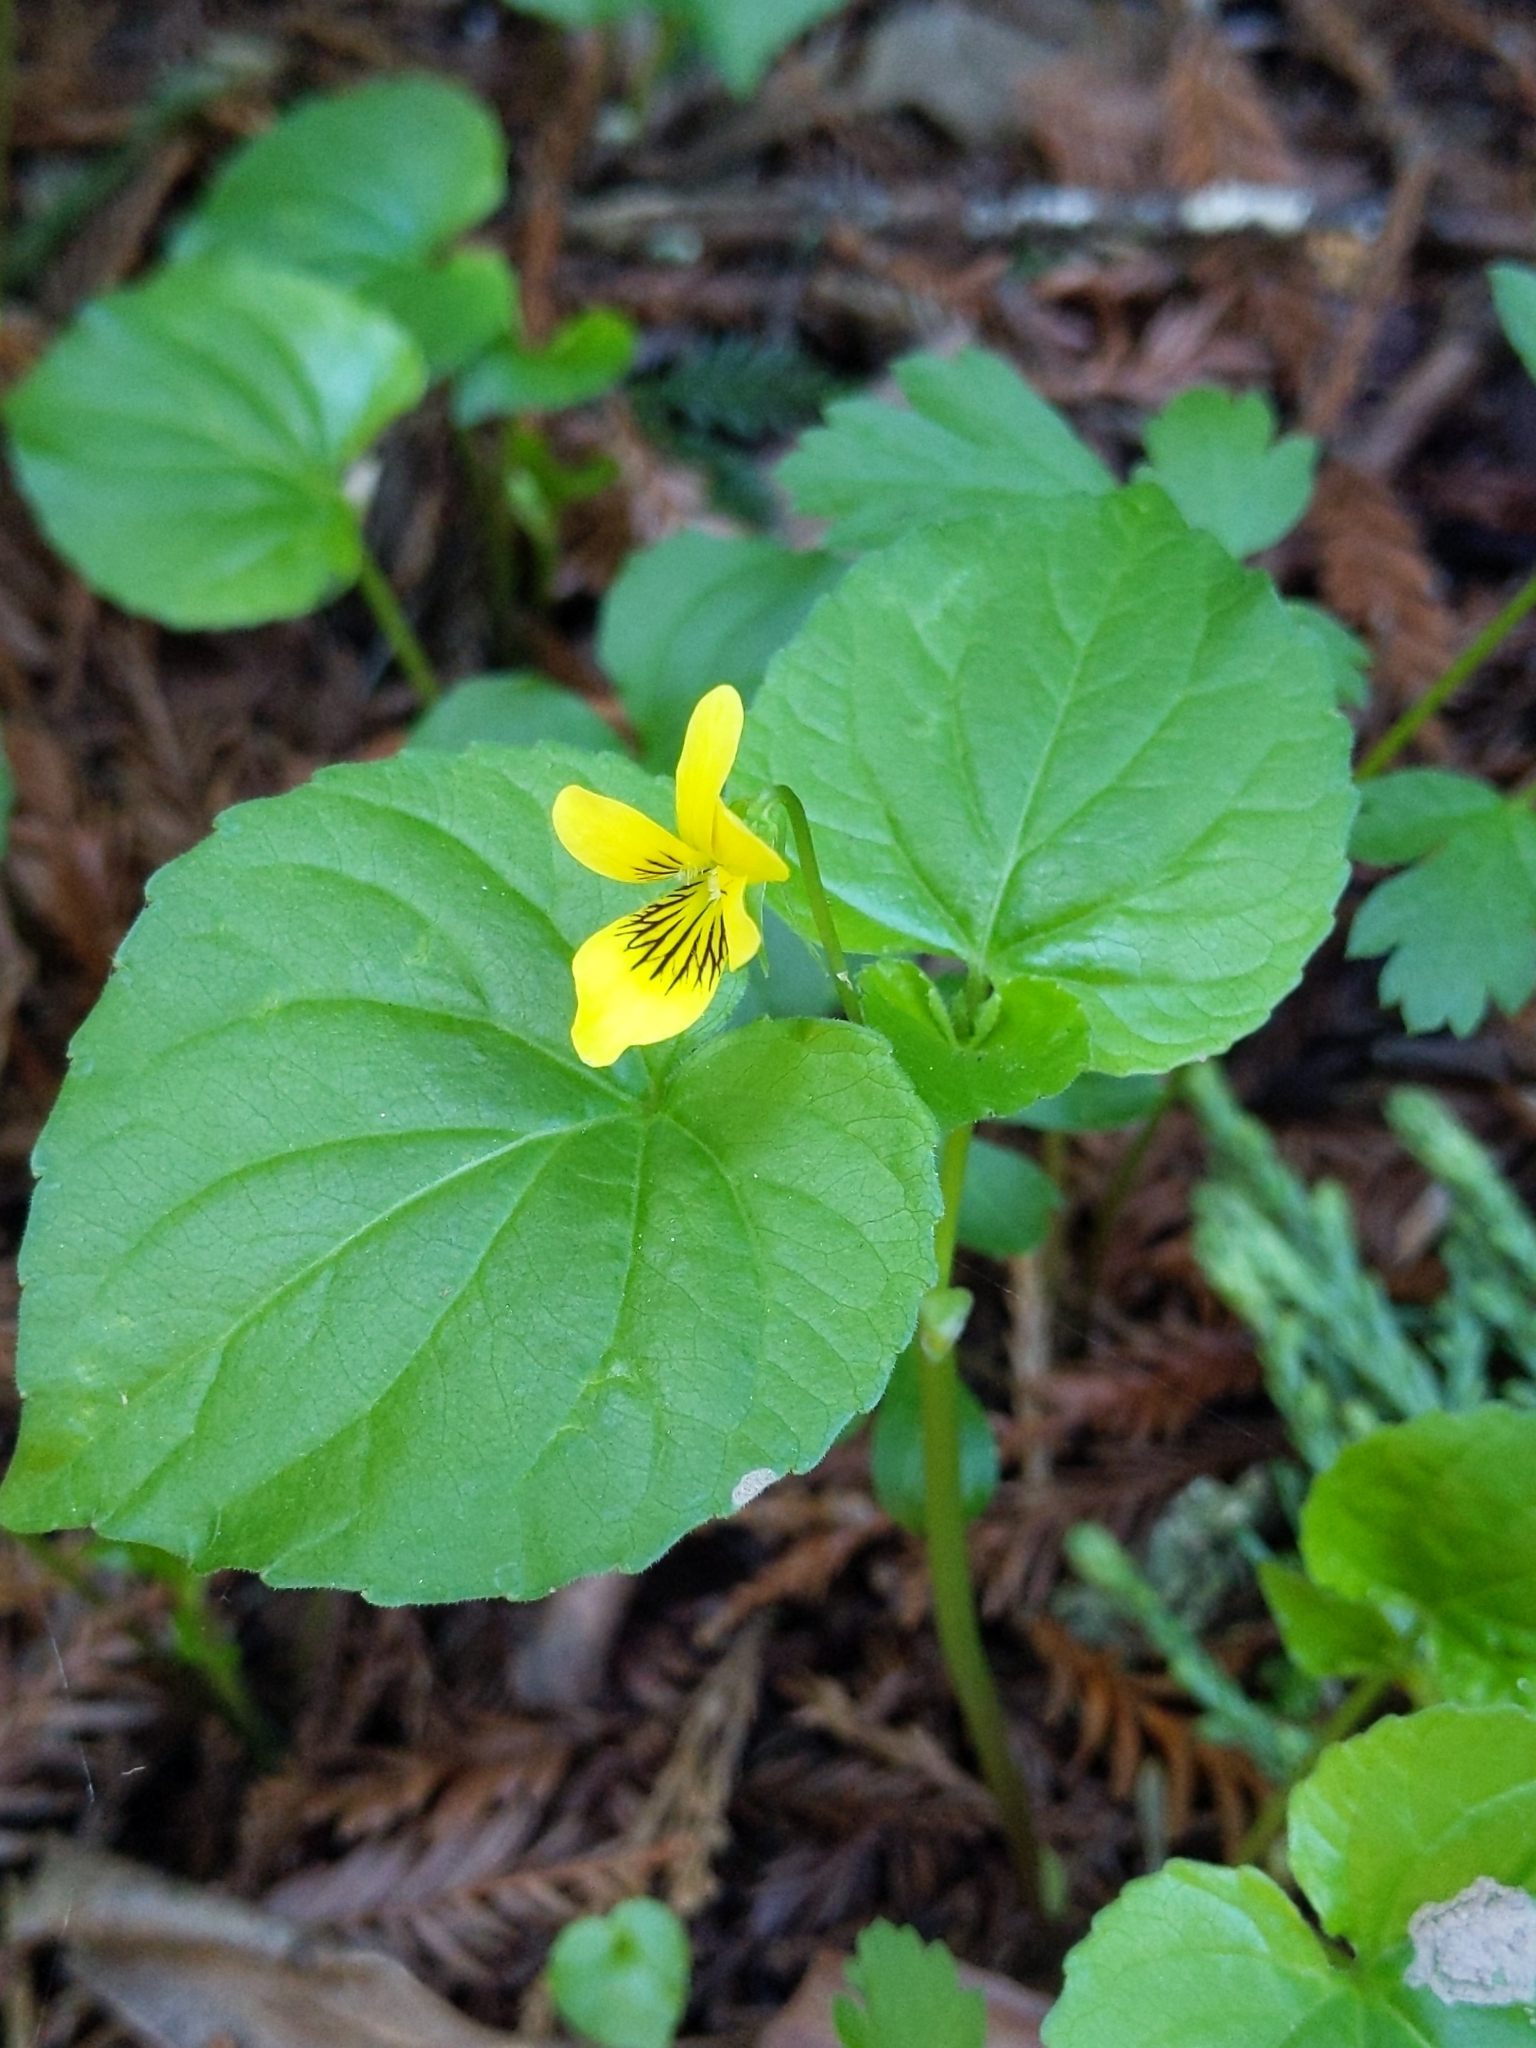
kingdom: Plantae
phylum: Tracheophyta
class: Magnoliopsida
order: Malpighiales
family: Violaceae
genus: Viola
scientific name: Viola glabella
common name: Stream violet
